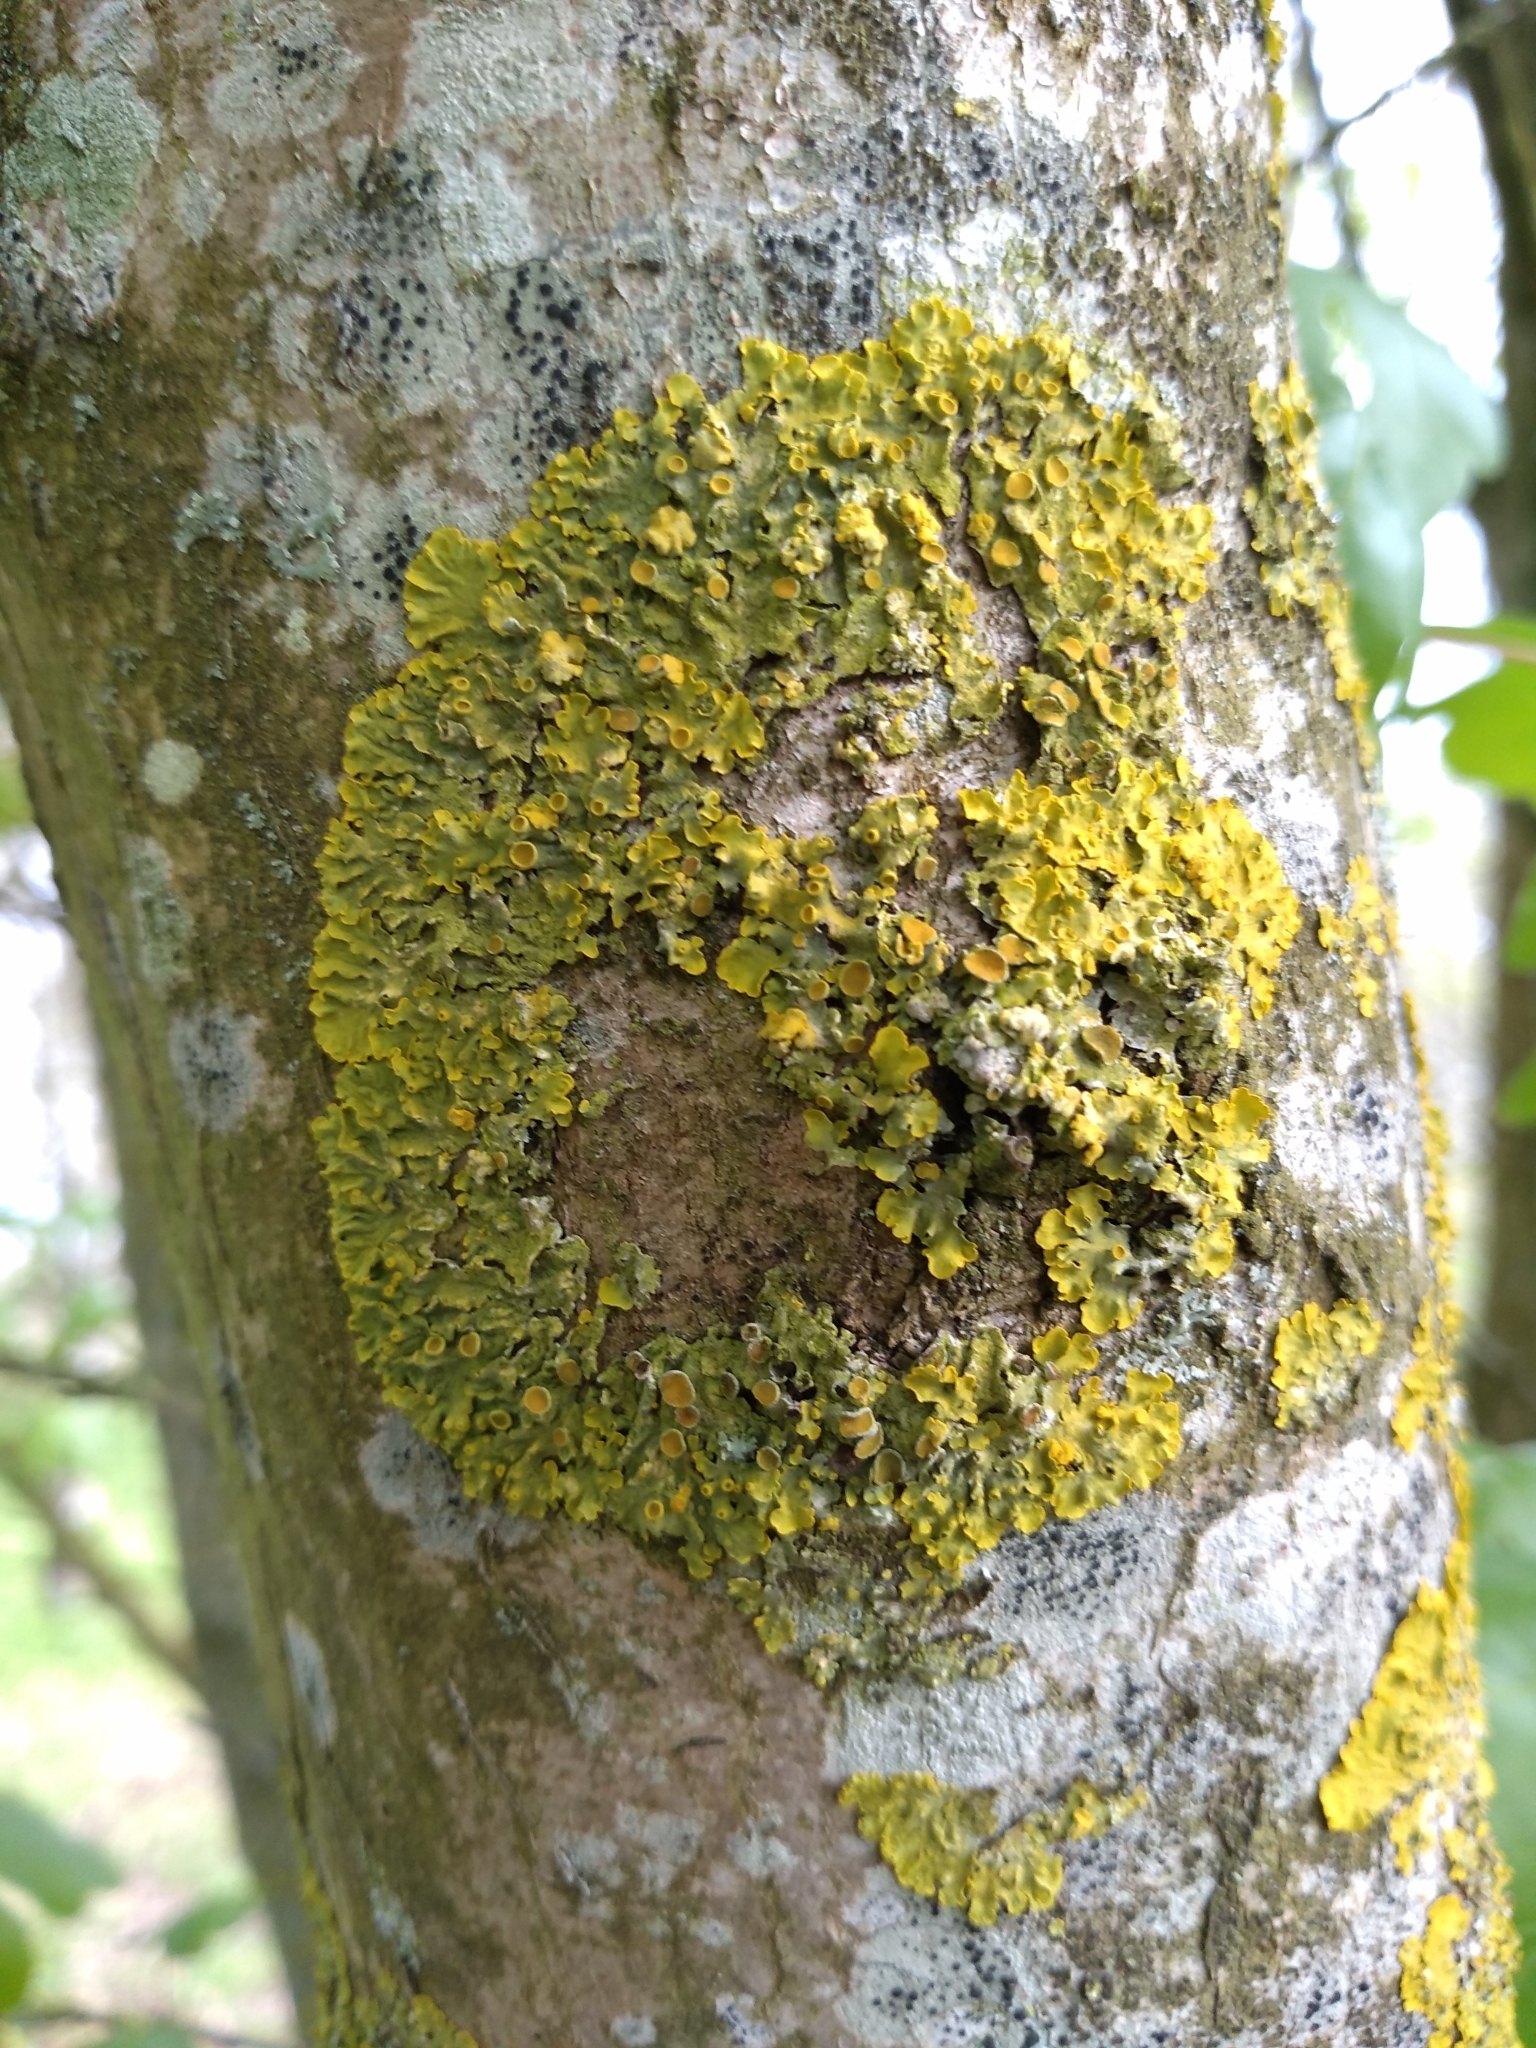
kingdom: Fungi
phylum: Ascomycota
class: Lecanoromycetes
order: Teloschistales
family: Teloschistaceae
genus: Xanthoria
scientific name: Xanthoria parietina
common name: Common orange lichen
